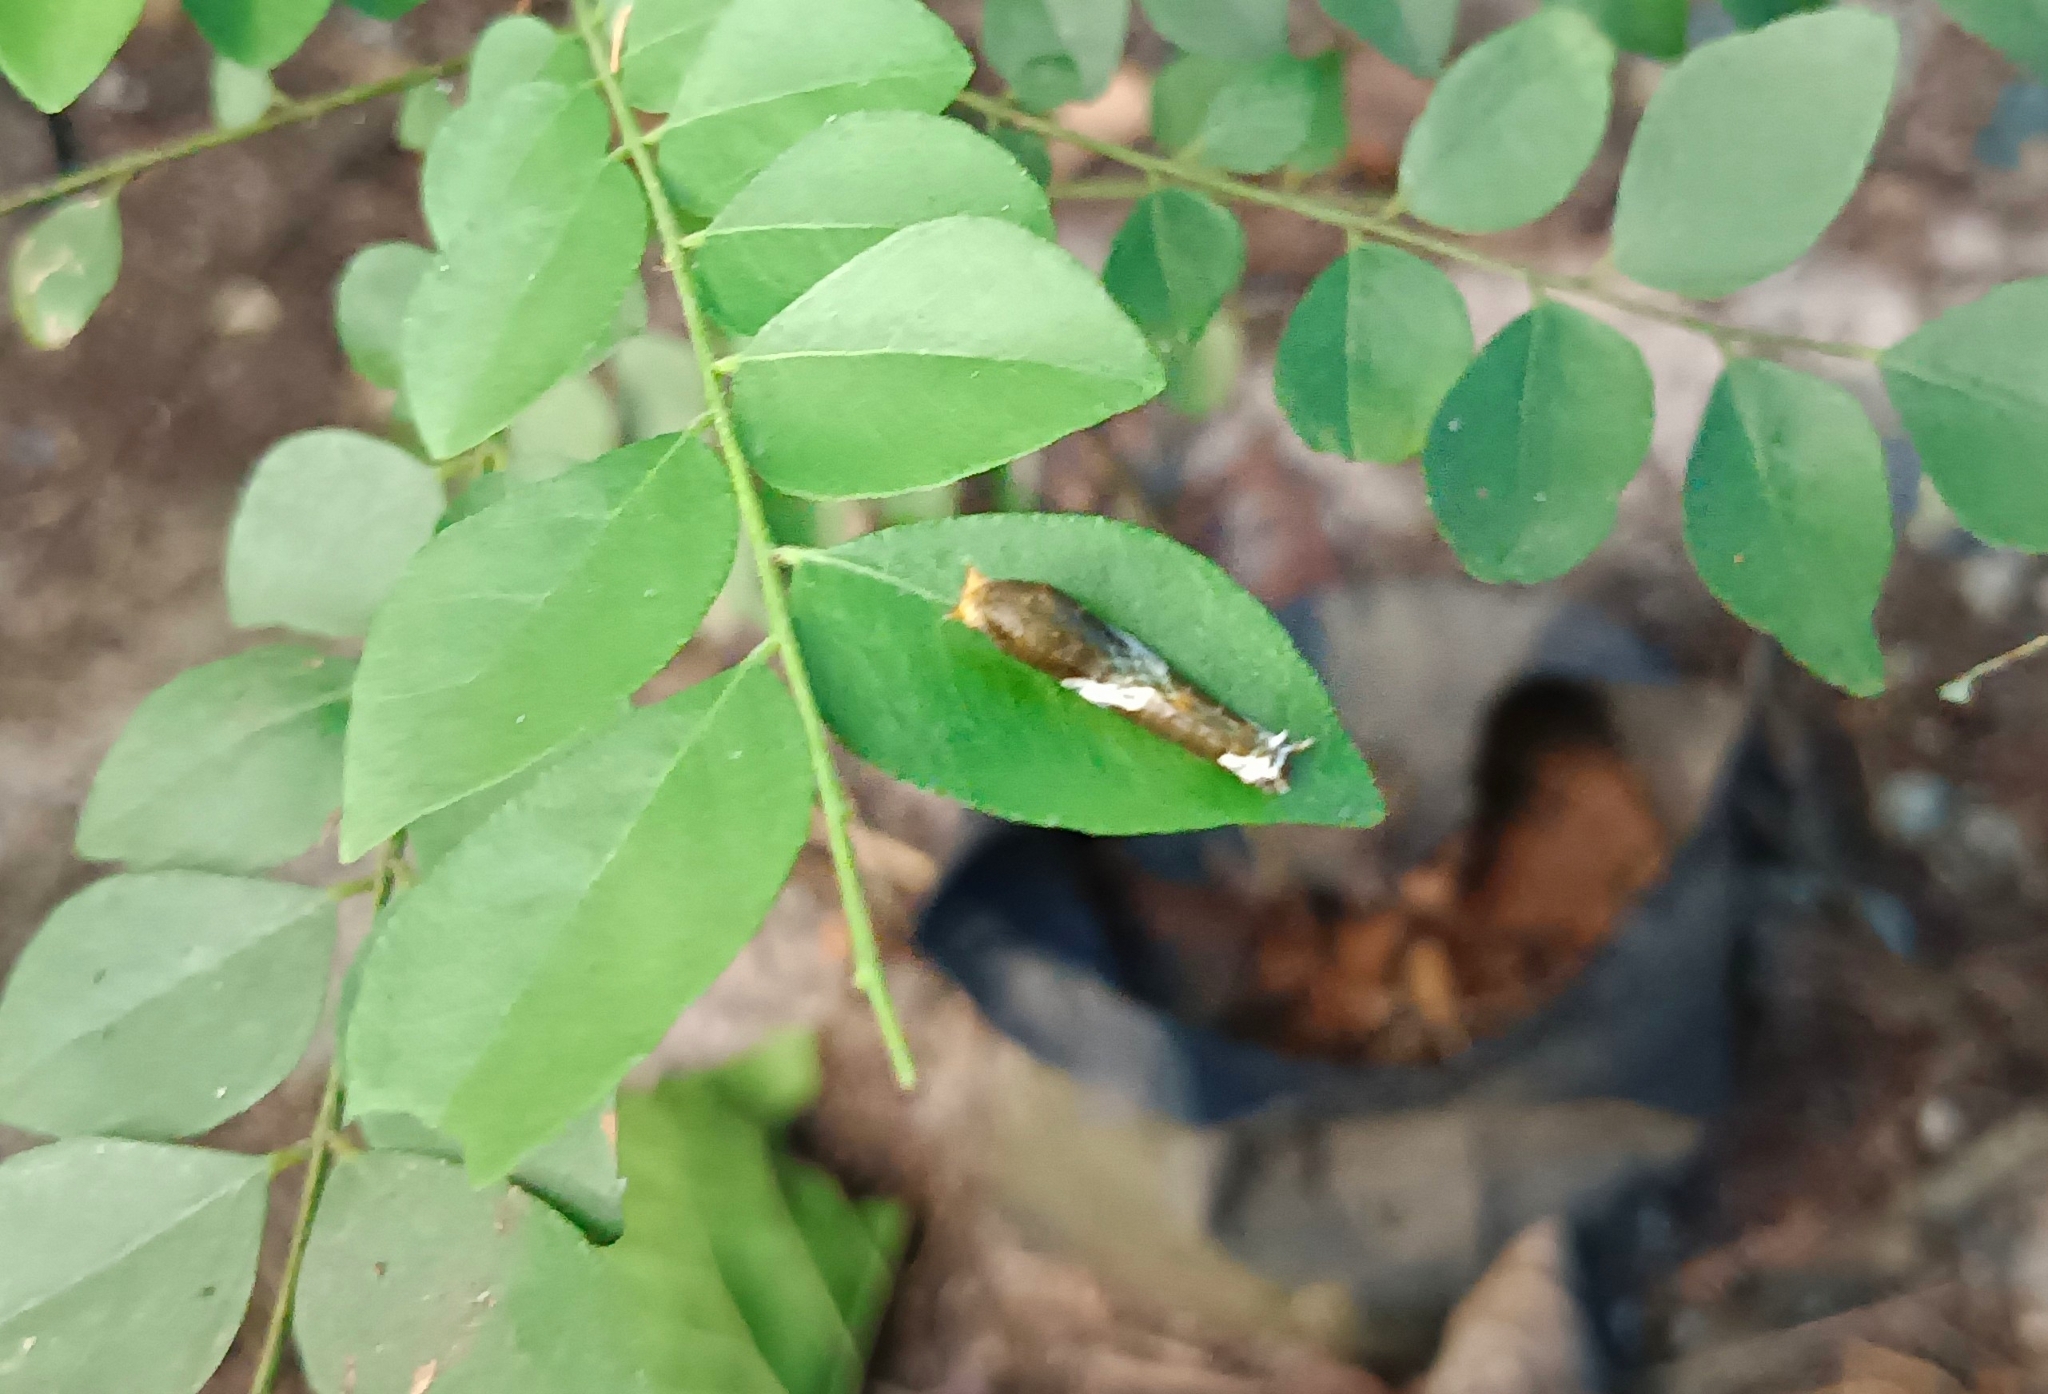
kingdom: Animalia
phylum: Arthropoda
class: Insecta
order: Lepidoptera
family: Papilionidae
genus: Papilio
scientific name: Papilio polytes
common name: Common mormon
